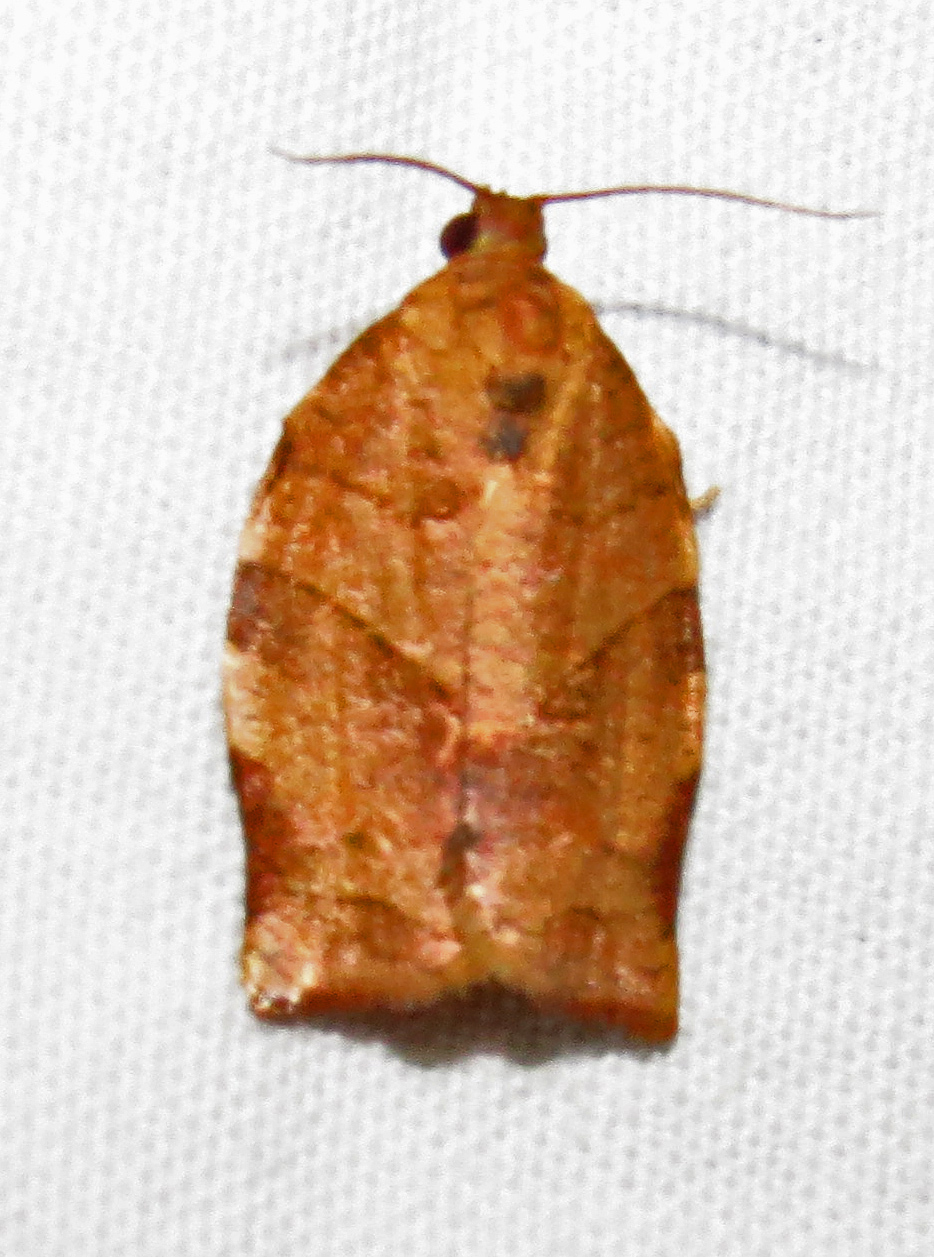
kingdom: Animalia
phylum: Arthropoda
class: Insecta
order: Lepidoptera
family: Tortricidae
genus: Choristoneura
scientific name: Choristoneura rosaceana
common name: Oblique-banded leafroller moth
